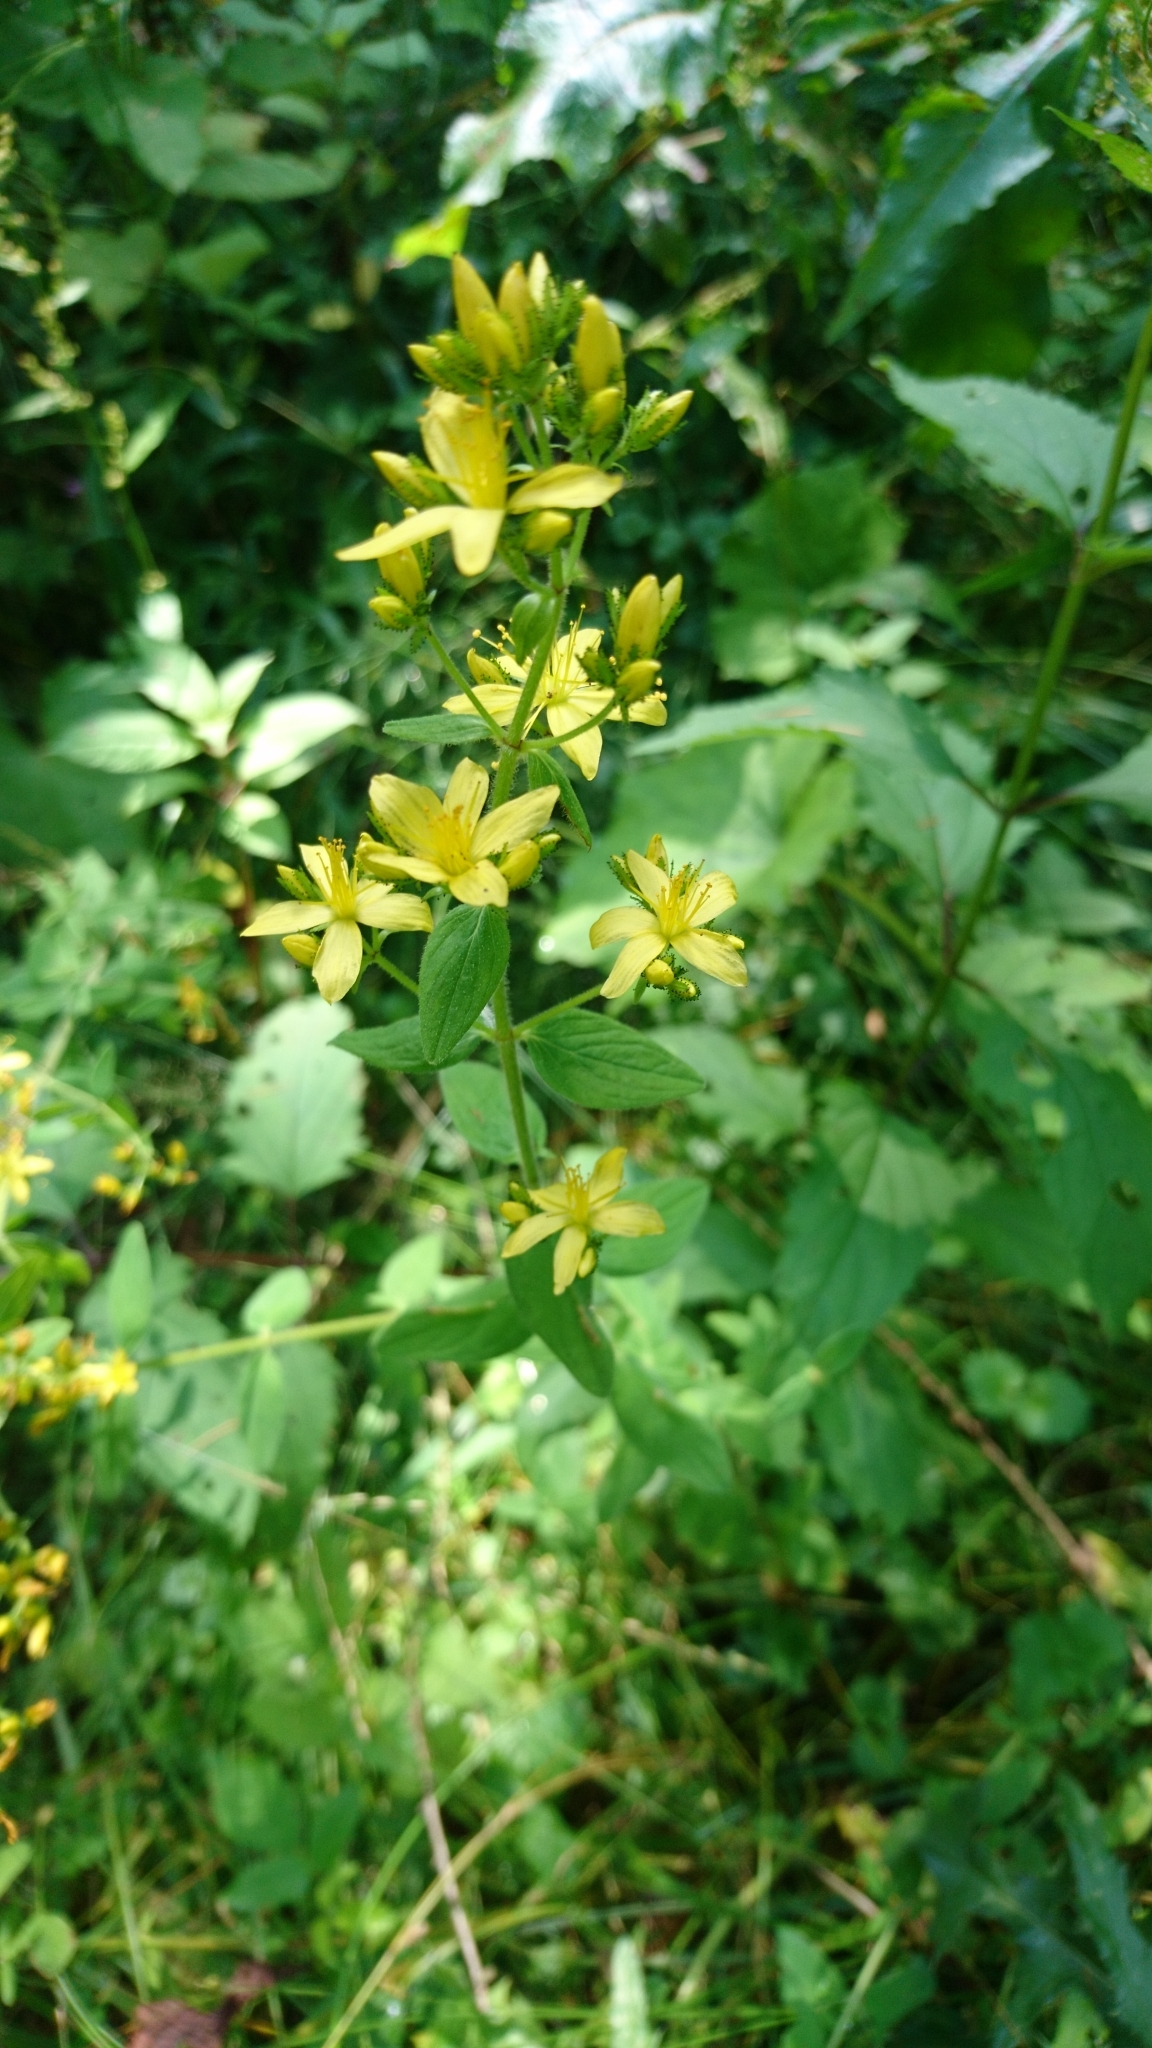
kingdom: Plantae
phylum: Tracheophyta
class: Magnoliopsida
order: Malpighiales
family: Hypericaceae
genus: Hypericum
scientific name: Hypericum hirsutum
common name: Hairy st. john's-wort
